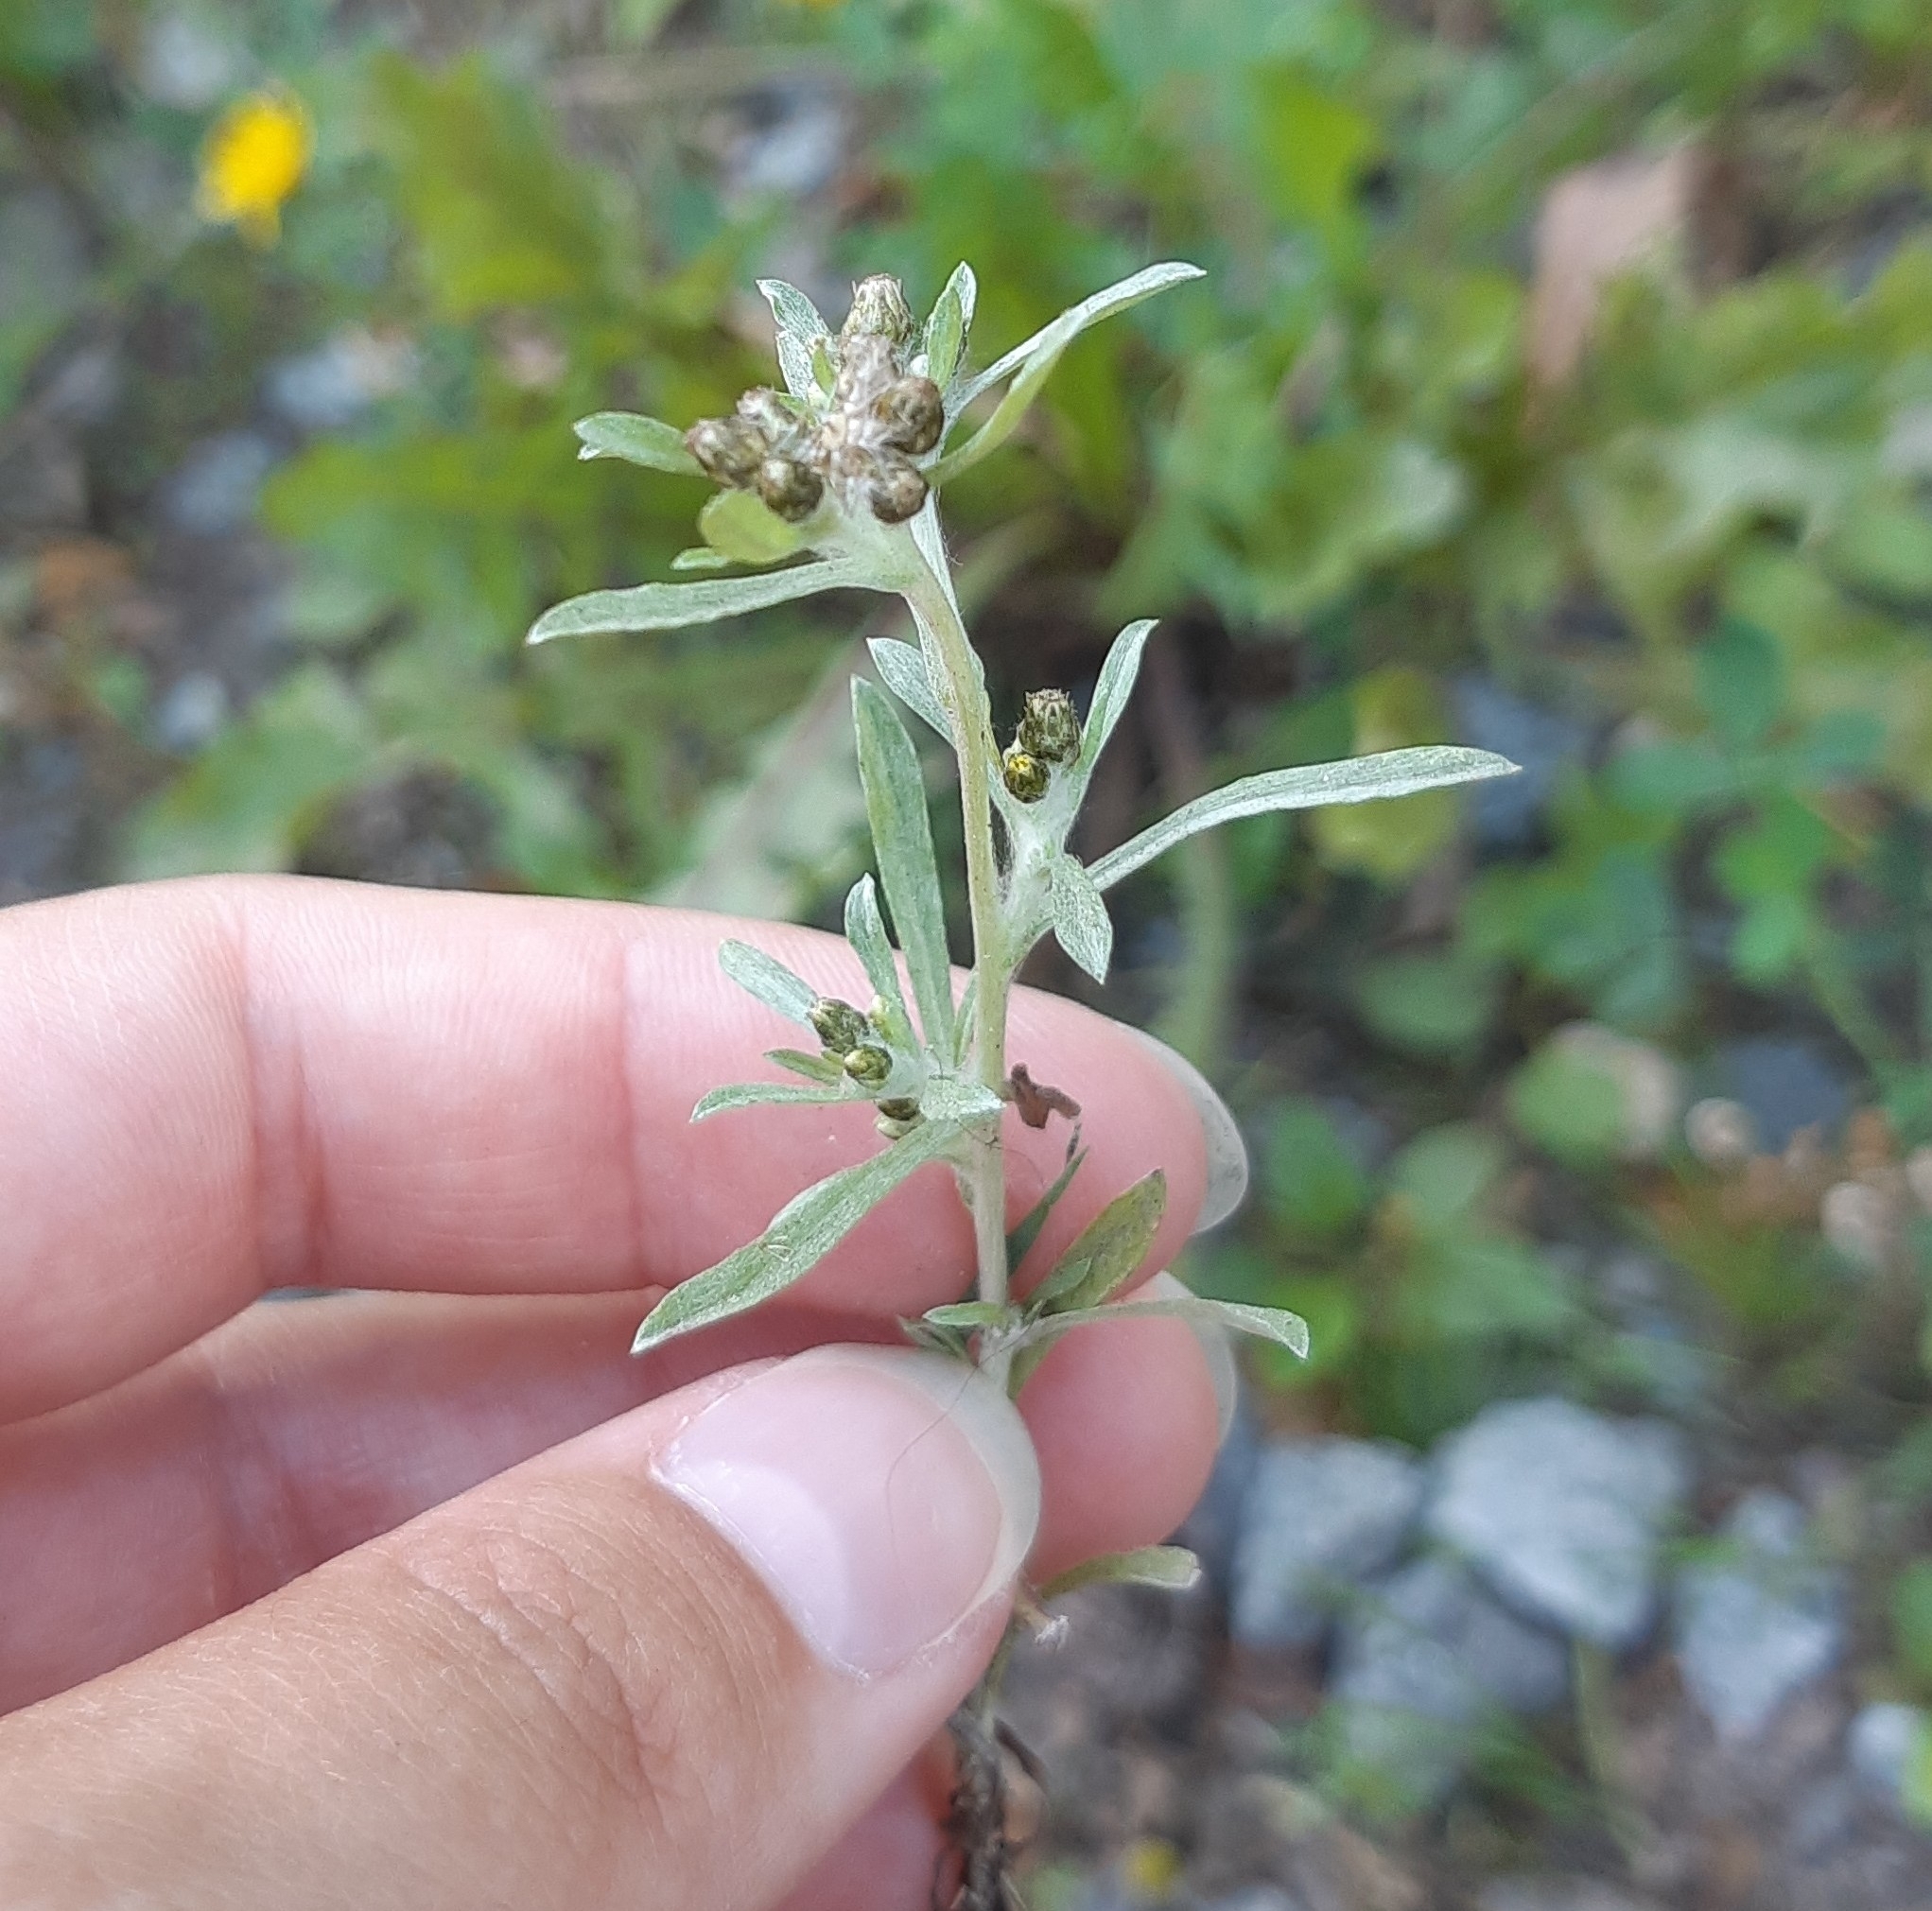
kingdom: Plantae
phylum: Tracheophyta
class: Magnoliopsida
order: Asterales
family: Asteraceae
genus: Gnaphalium
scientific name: Gnaphalium uliginosum
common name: Marsh cudweed
